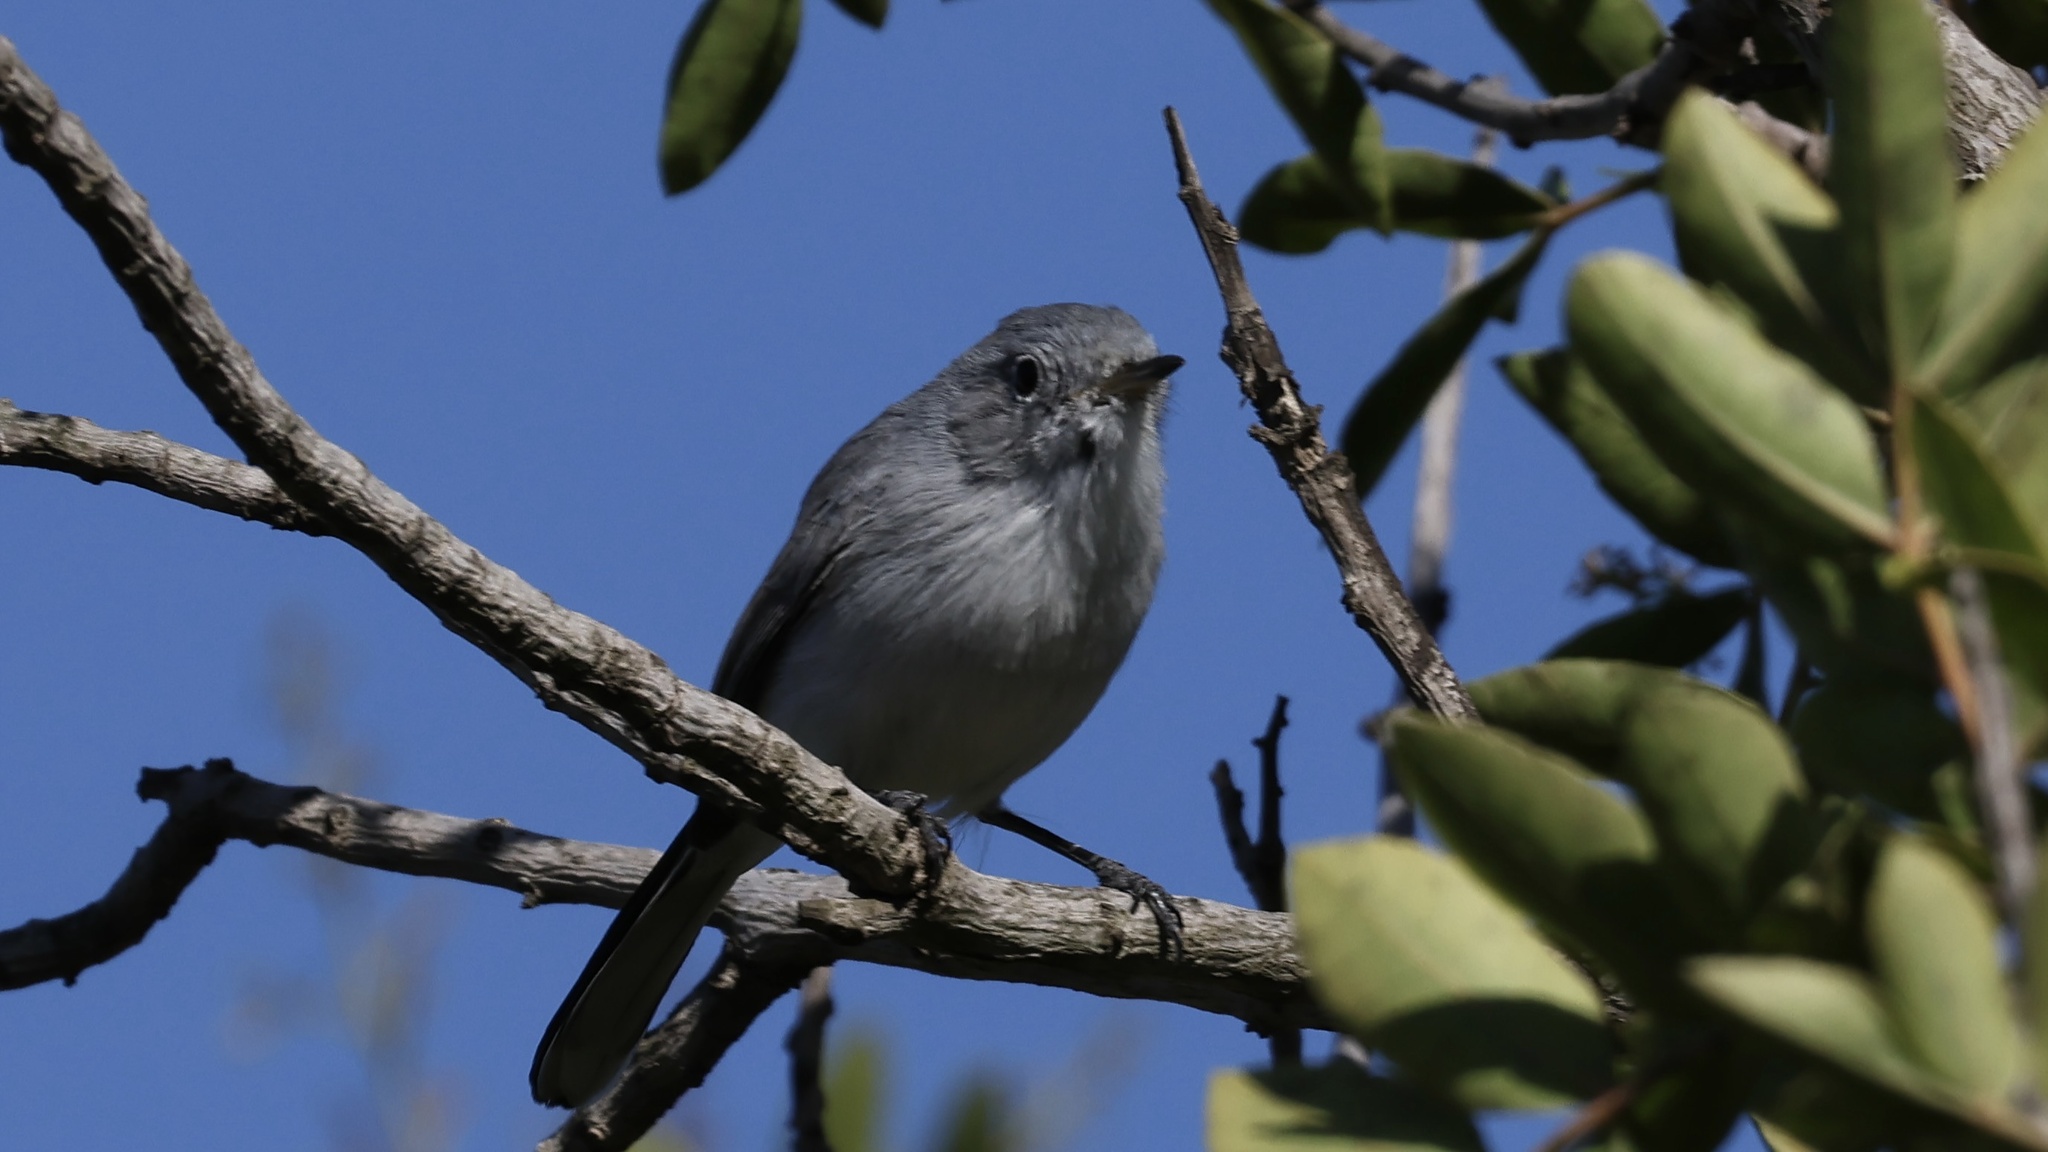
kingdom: Animalia
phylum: Chordata
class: Aves
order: Passeriformes
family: Polioptilidae
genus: Polioptila
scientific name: Polioptila caerulea
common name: Blue-gray gnatcatcher
